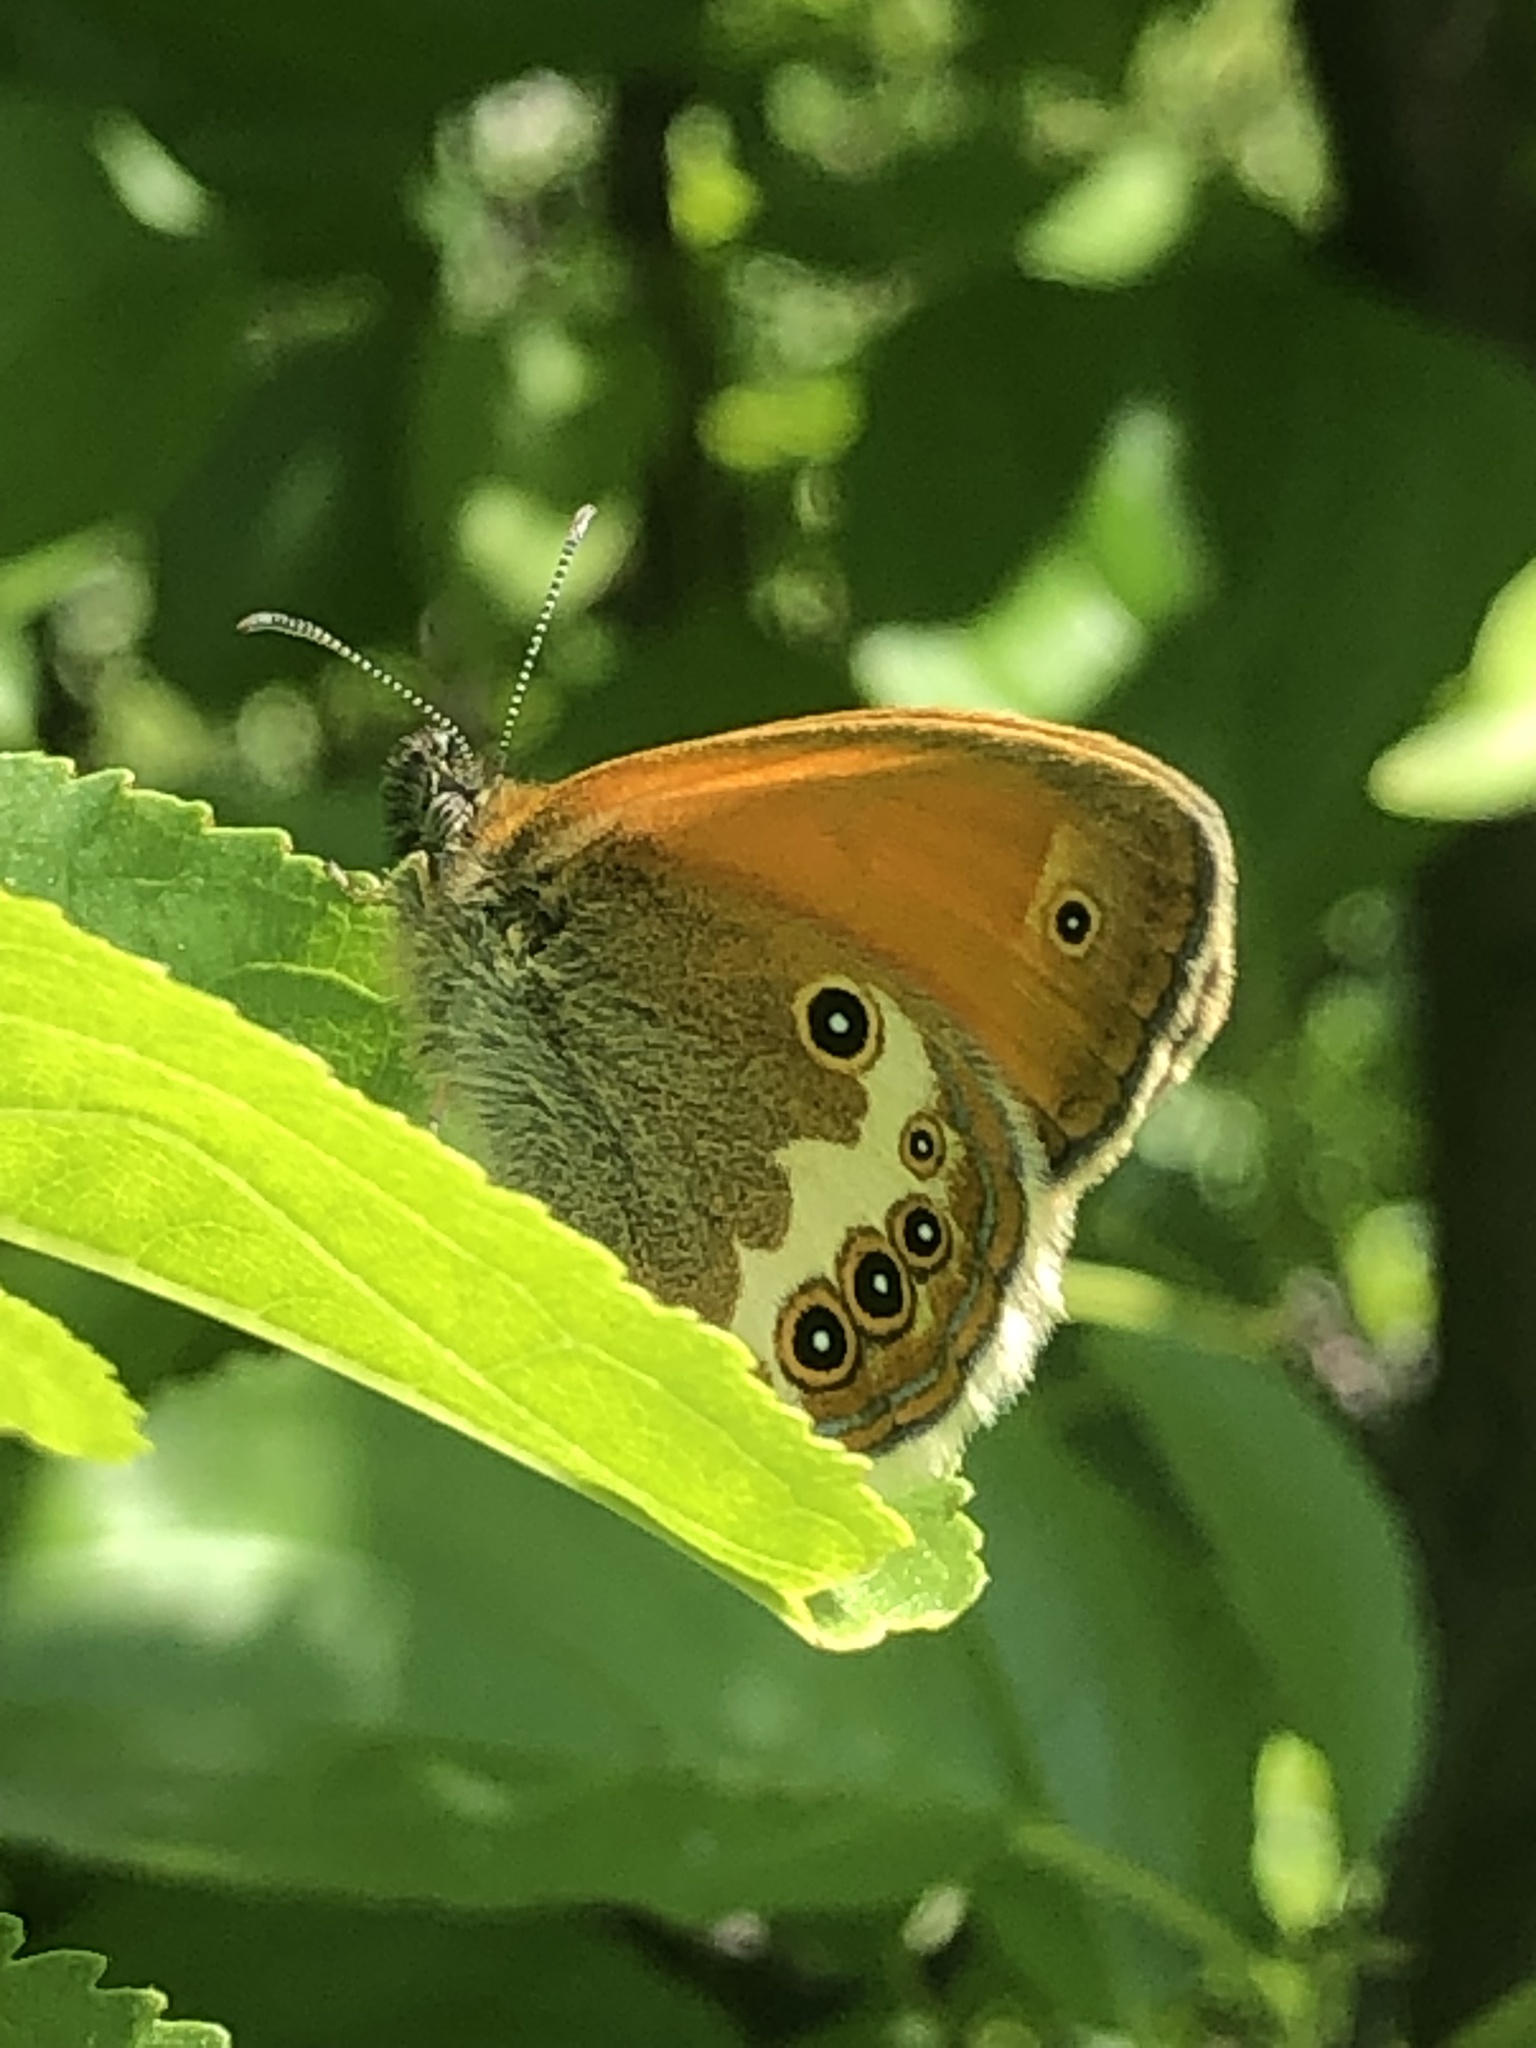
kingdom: Animalia
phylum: Arthropoda
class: Insecta
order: Lepidoptera
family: Nymphalidae
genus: Coenonympha
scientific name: Coenonympha arcania
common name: Pearly heath
